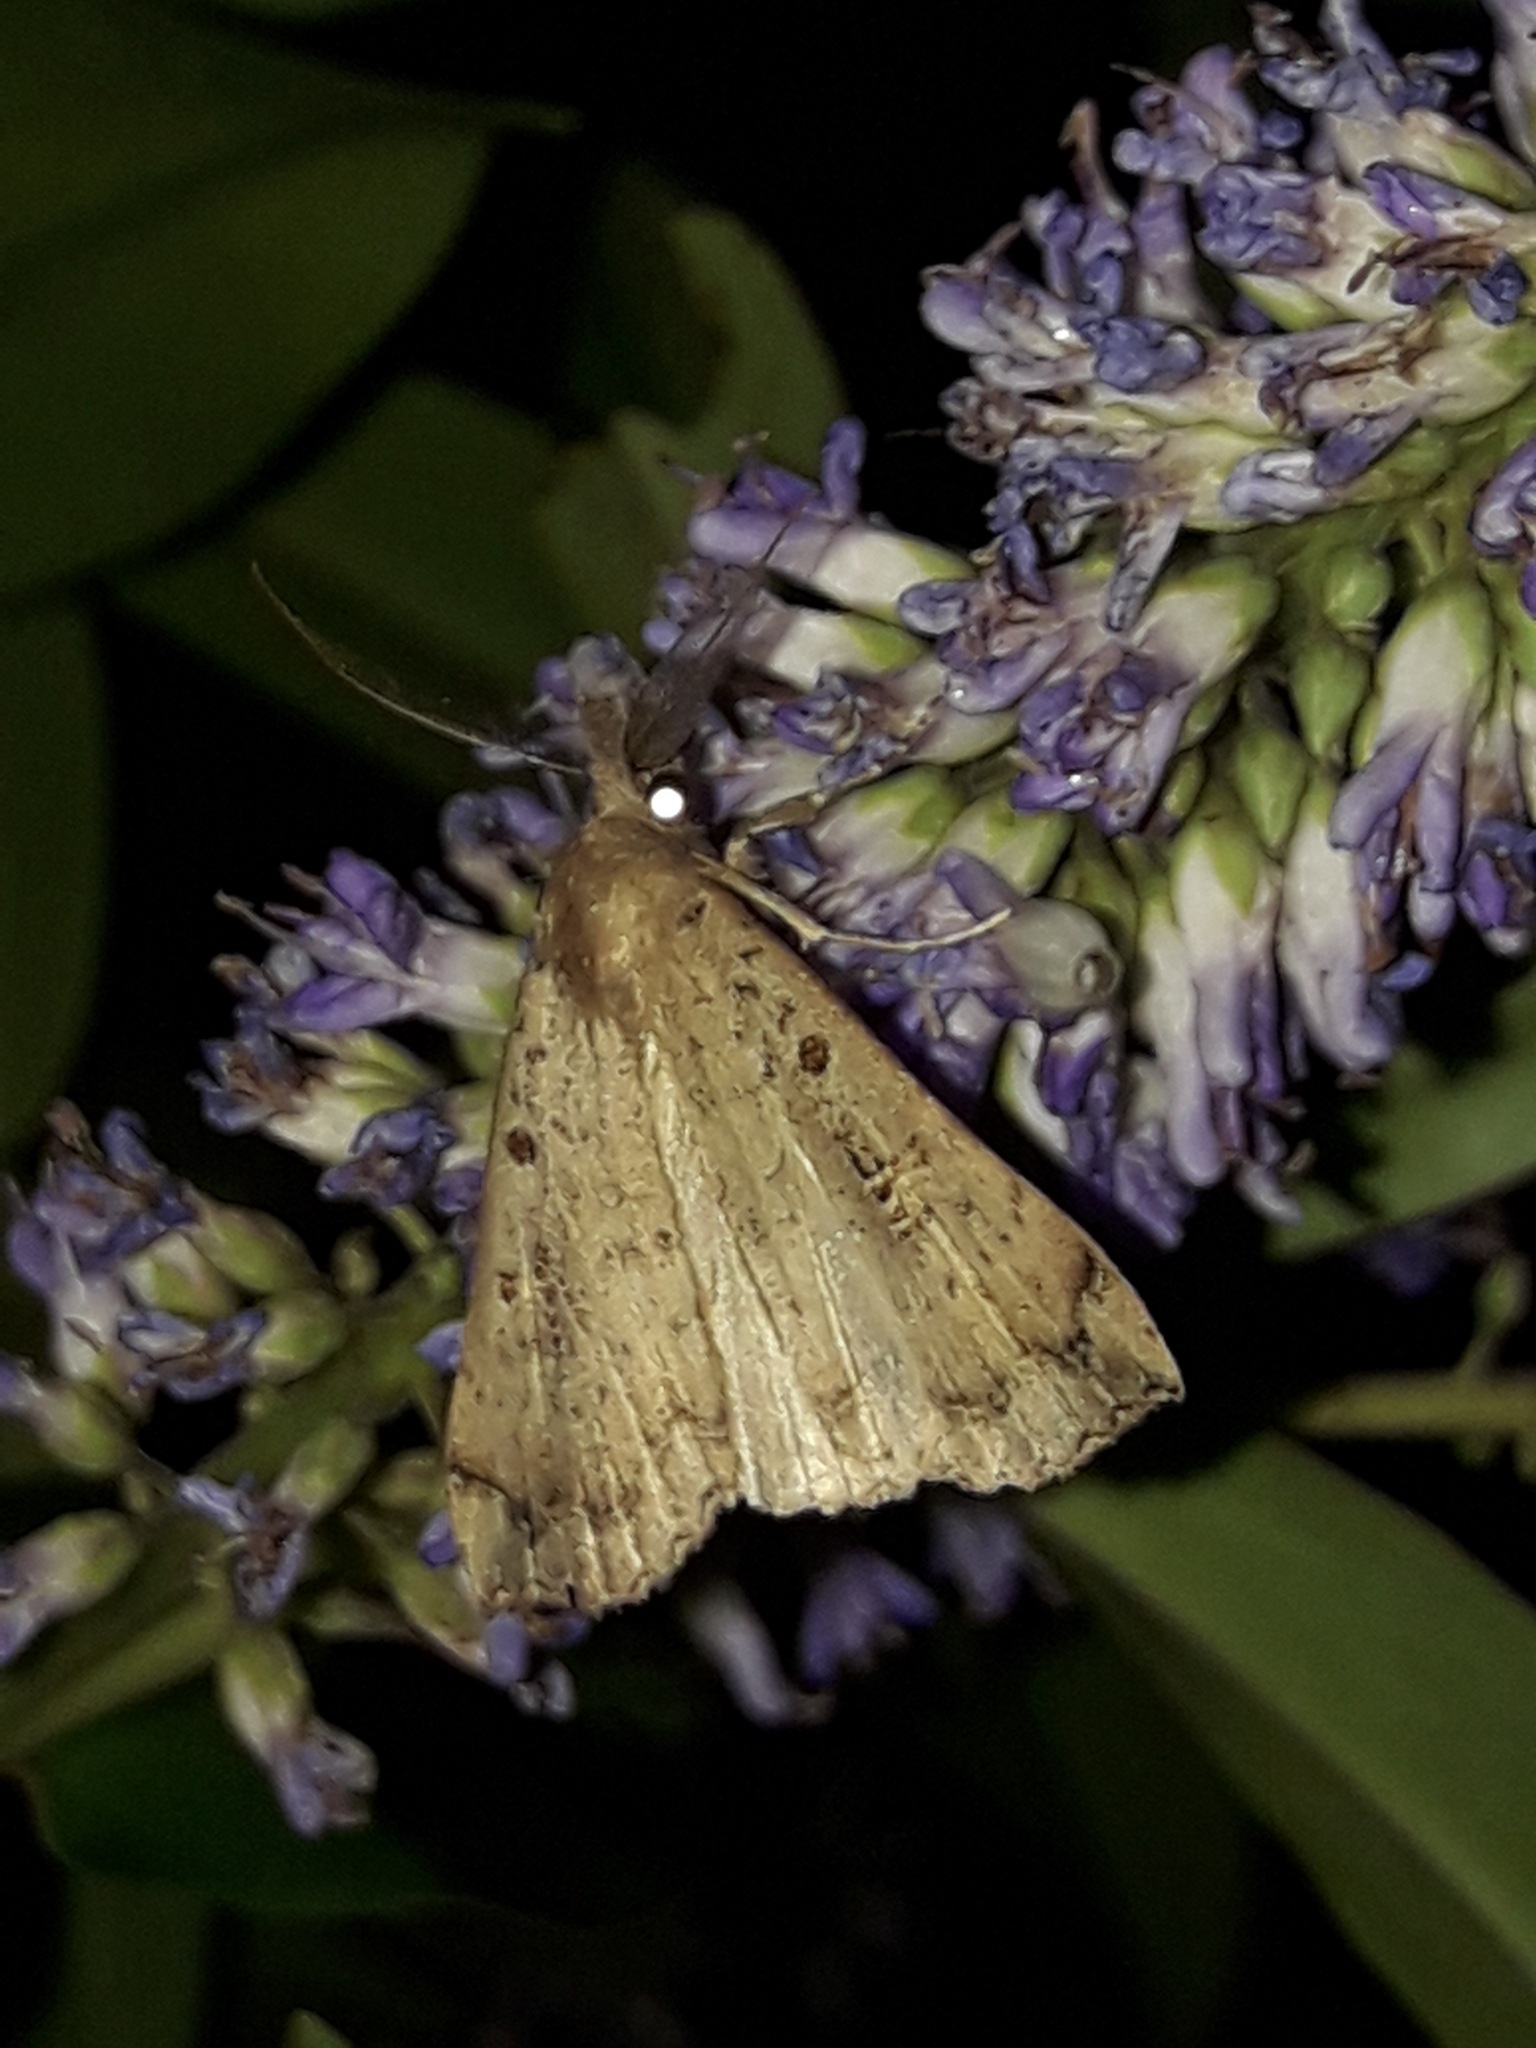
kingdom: Animalia
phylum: Arthropoda
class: Insecta
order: Lepidoptera
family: Erebidae
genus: Rhapsa
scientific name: Rhapsa scotosialis
